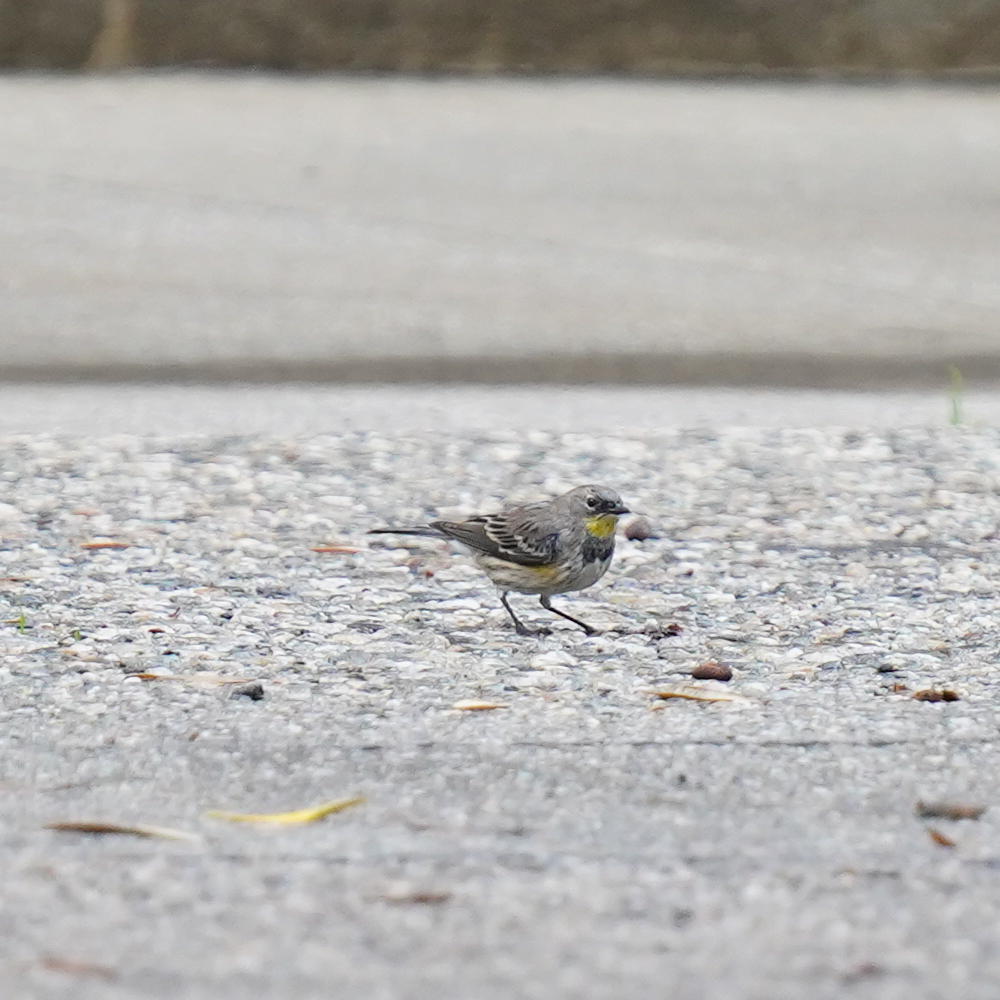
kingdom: Animalia
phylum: Chordata
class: Aves
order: Passeriformes
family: Parulidae
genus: Setophaga
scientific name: Setophaga coronata
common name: Myrtle warbler
